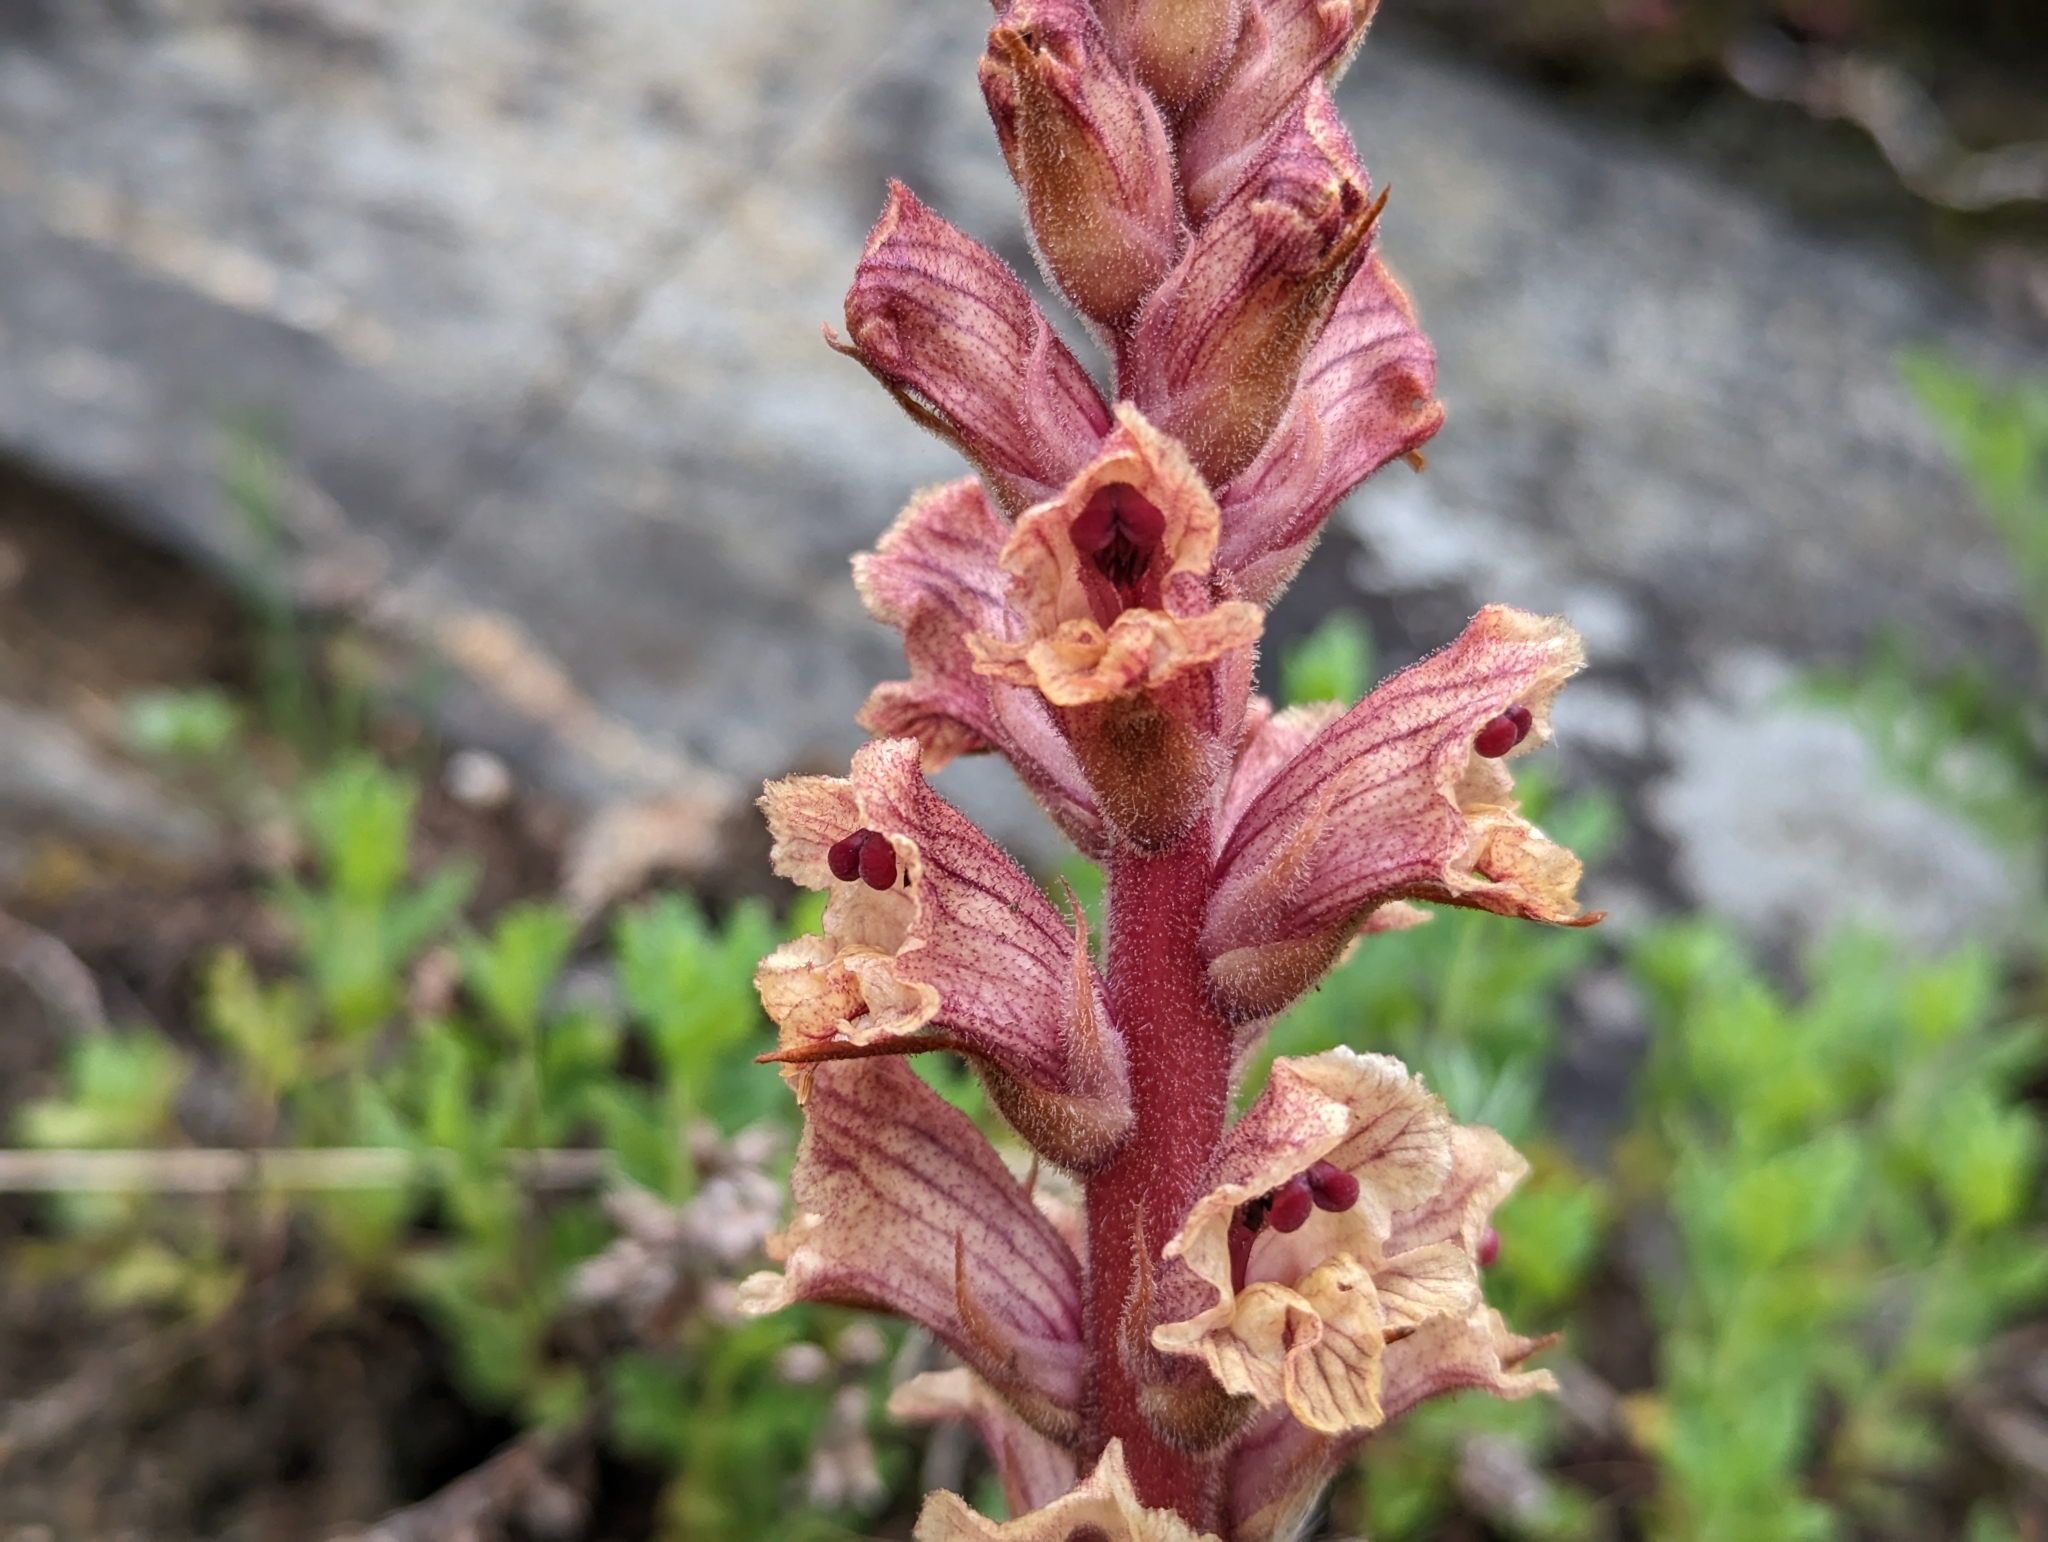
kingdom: Plantae
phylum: Tracheophyta
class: Magnoliopsida
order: Lamiales
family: Orobanchaceae
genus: Orobanche
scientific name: Orobanche alba
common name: Thyme broomrape
